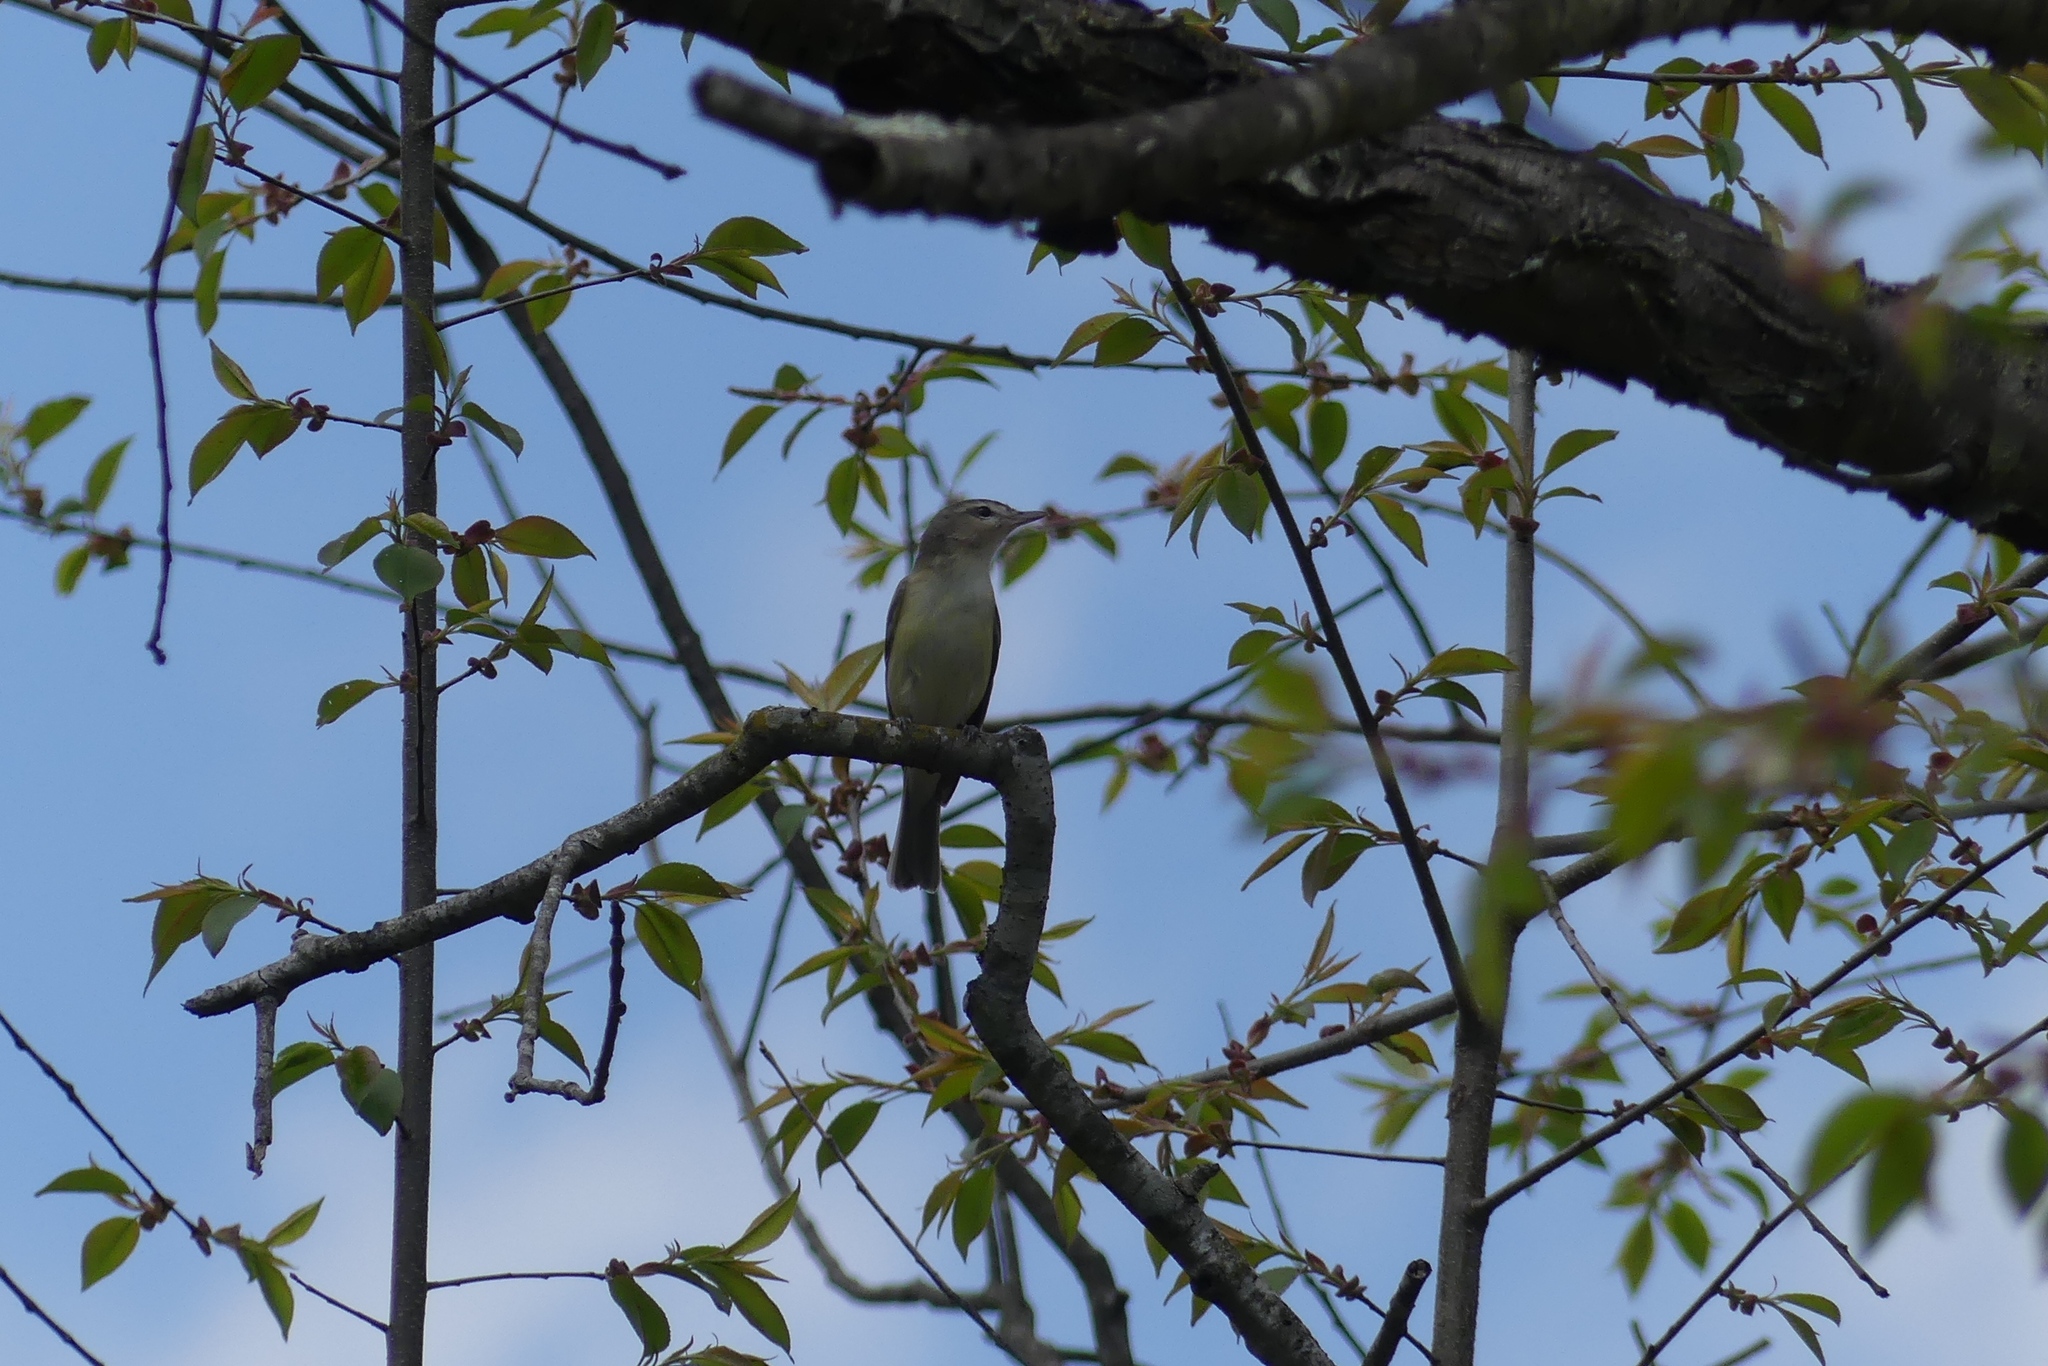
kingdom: Animalia
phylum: Chordata
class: Aves
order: Passeriformes
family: Vireonidae
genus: Vireo
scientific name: Vireo gilvus
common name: Warbling vireo
